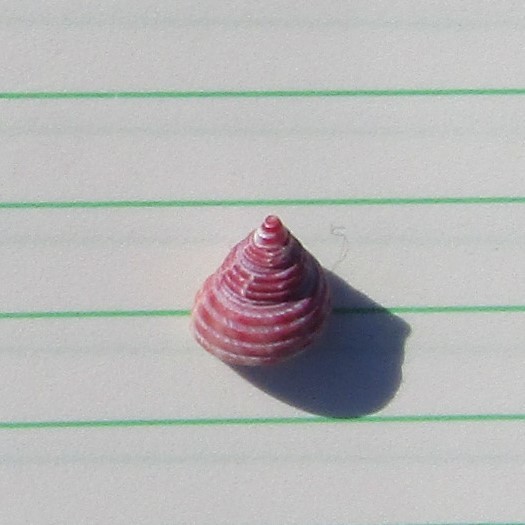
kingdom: Animalia
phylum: Mollusca
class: Gastropoda
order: Trochida
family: Trochidae
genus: Micrelenchus
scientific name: Micrelenchus purpureus
